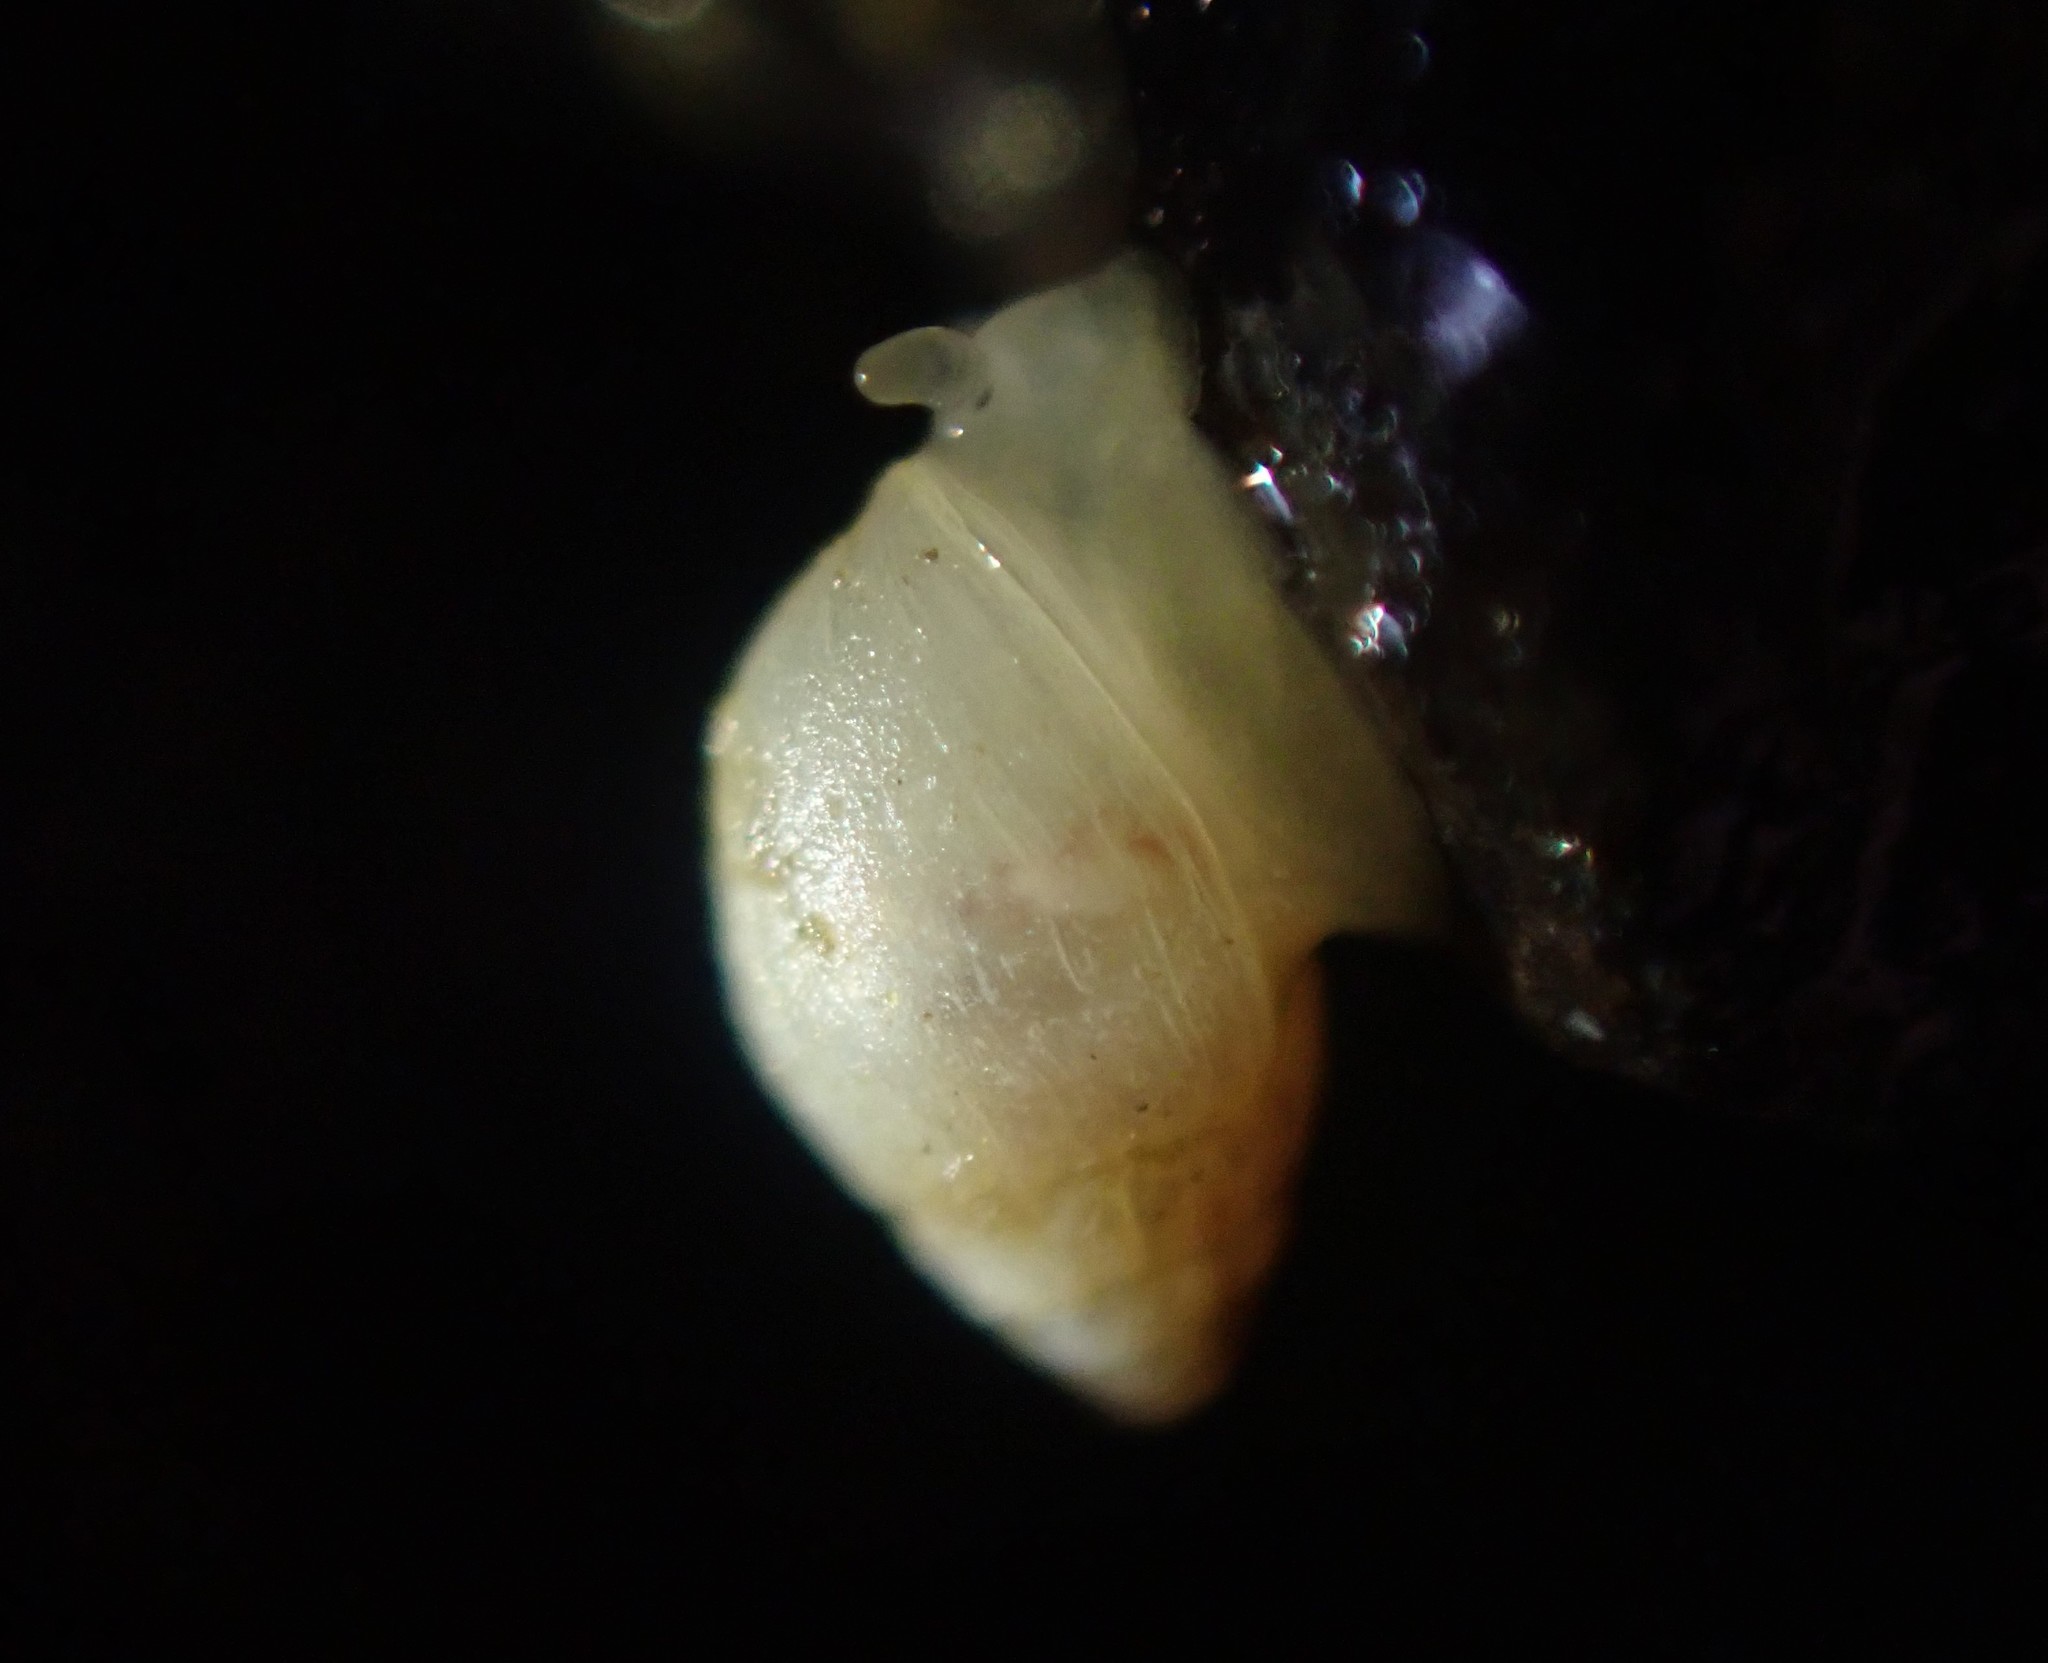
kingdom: Animalia
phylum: Mollusca
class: Gastropoda
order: Ellobiida
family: Ellobiidae
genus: Leuconopsis
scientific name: Leuconopsis obsoleta
